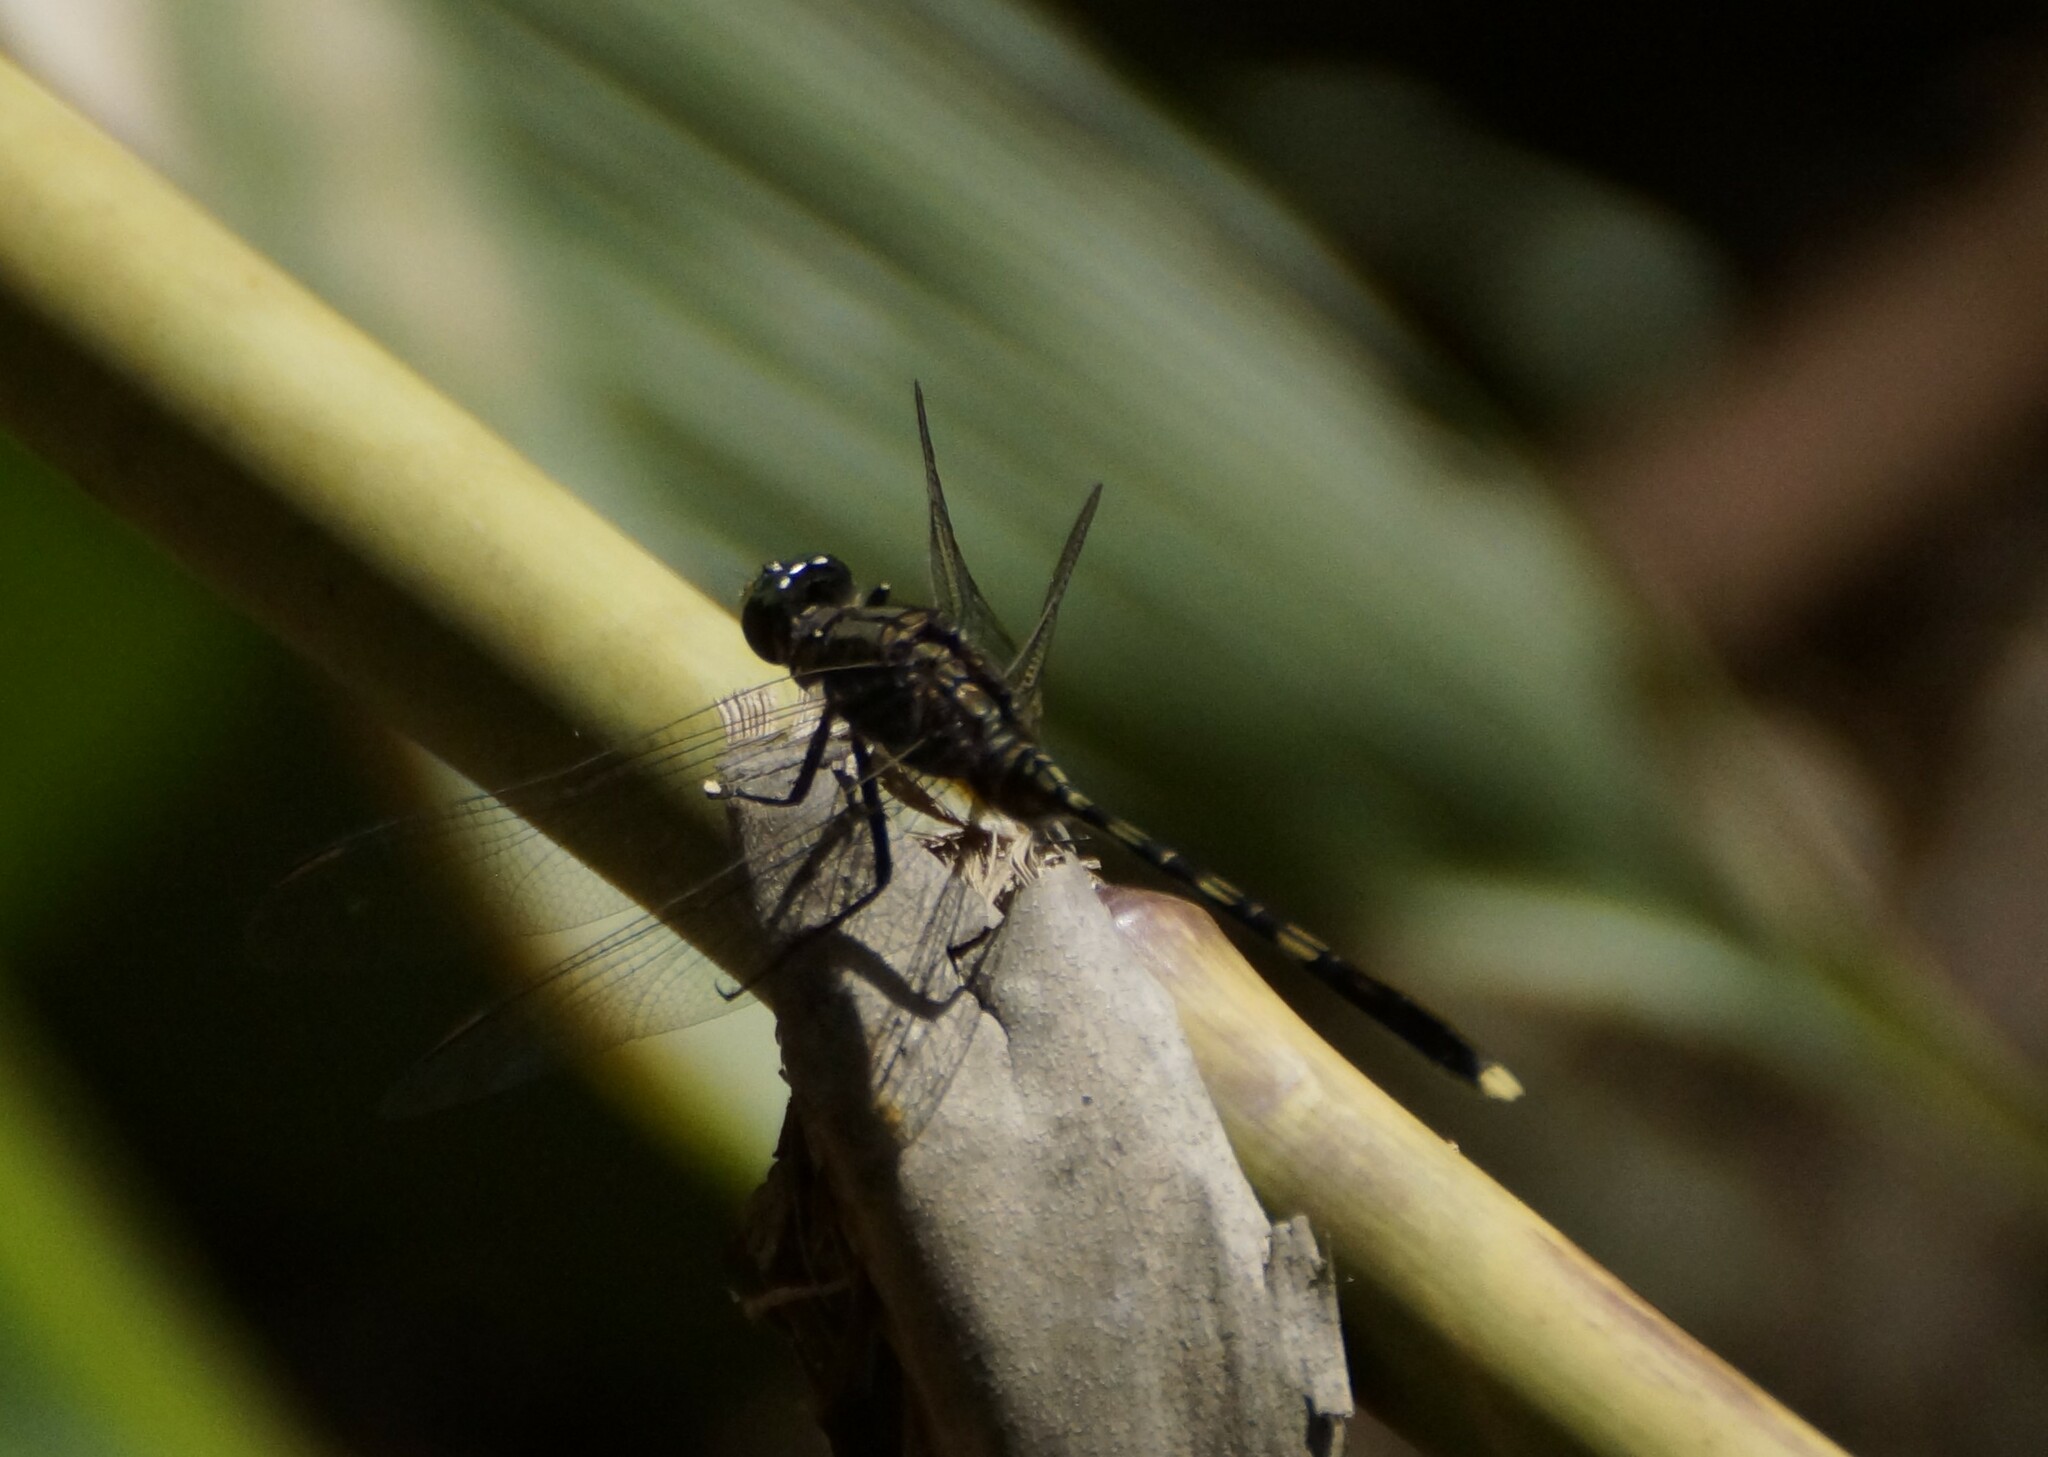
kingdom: Animalia
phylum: Arthropoda
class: Insecta
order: Odonata
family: Libellulidae
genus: Orthetrum
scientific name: Orthetrum serapia
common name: Green skimmer
